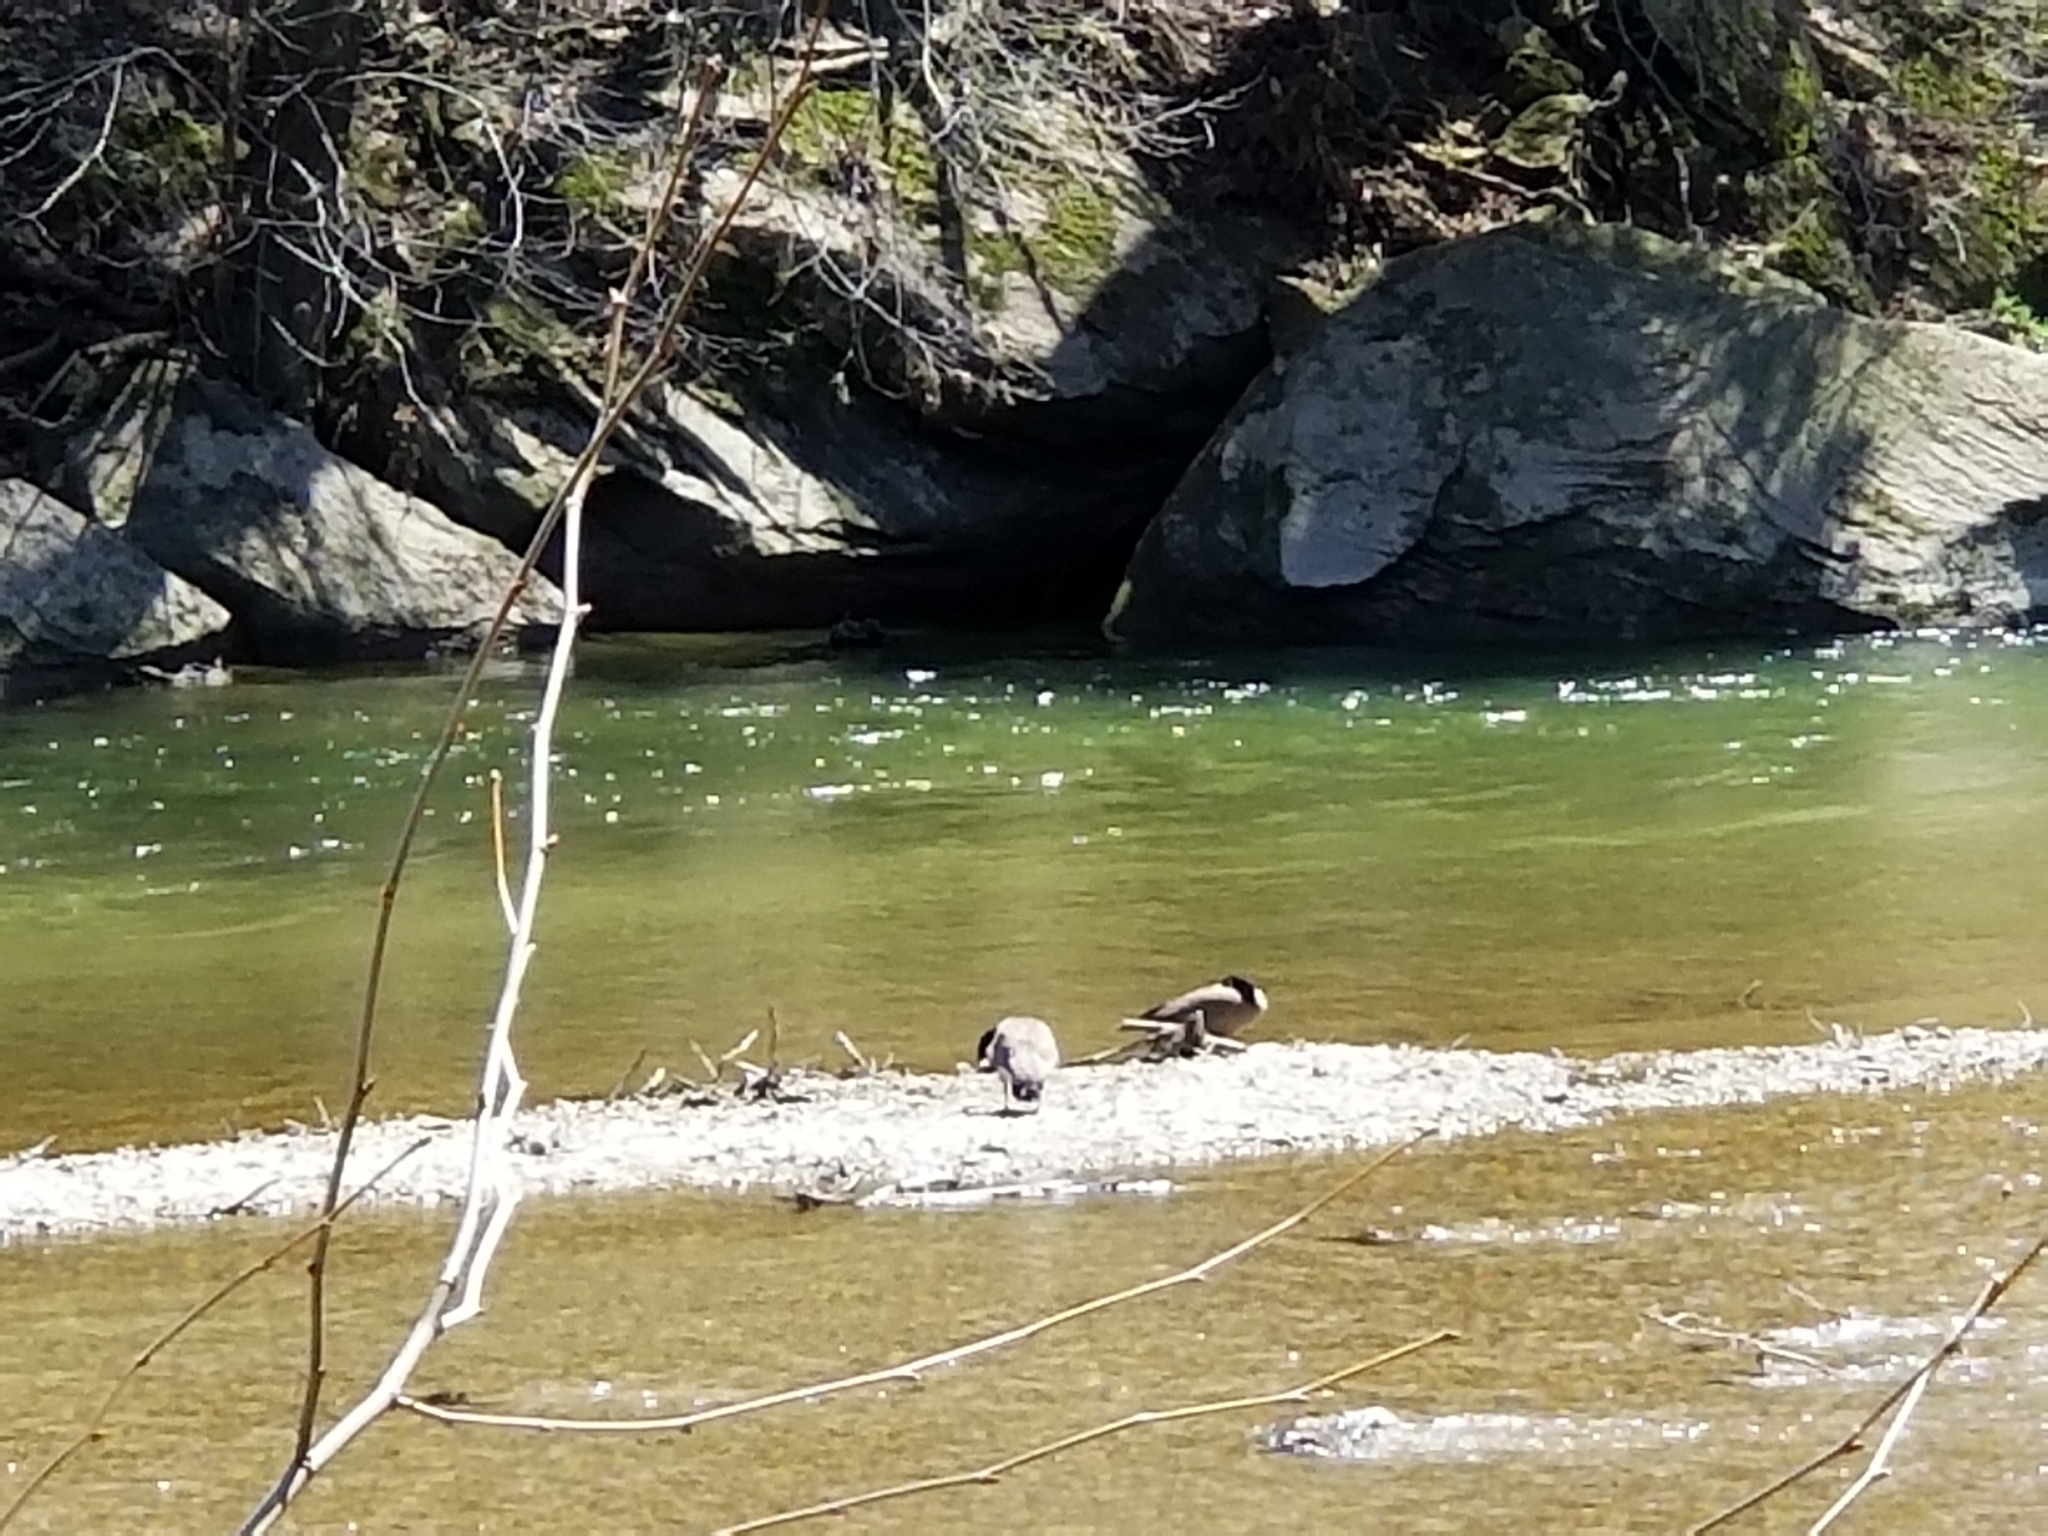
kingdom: Animalia
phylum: Chordata
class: Aves
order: Anseriformes
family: Anatidae
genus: Branta
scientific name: Branta canadensis
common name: Canada goose
